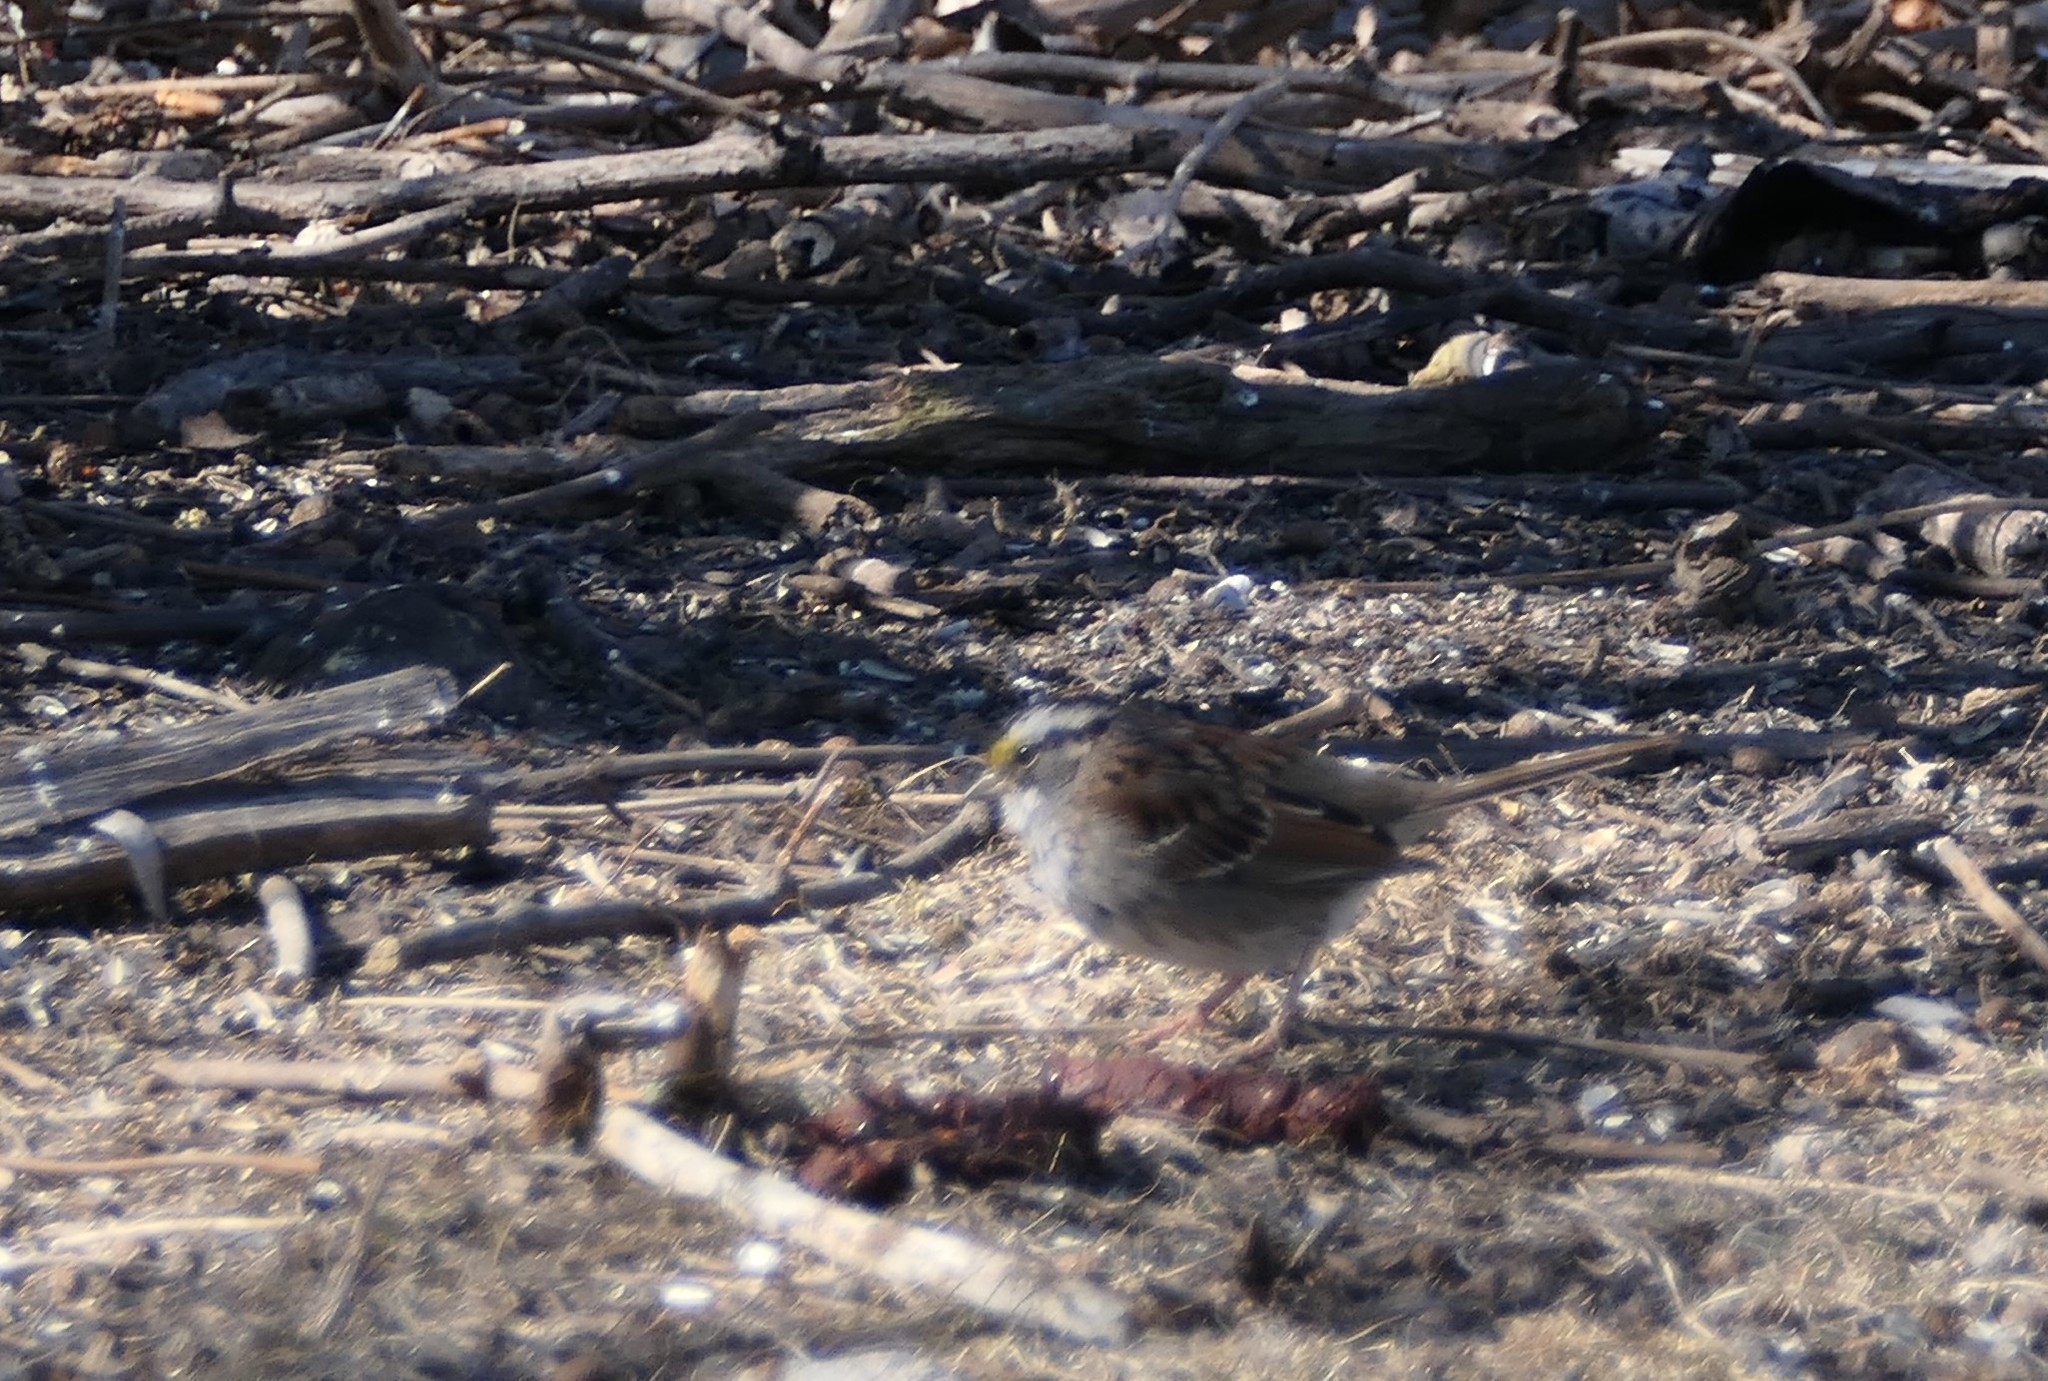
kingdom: Animalia
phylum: Chordata
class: Aves
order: Passeriformes
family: Passerellidae
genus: Zonotrichia
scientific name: Zonotrichia albicollis
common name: White-throated sparrow
